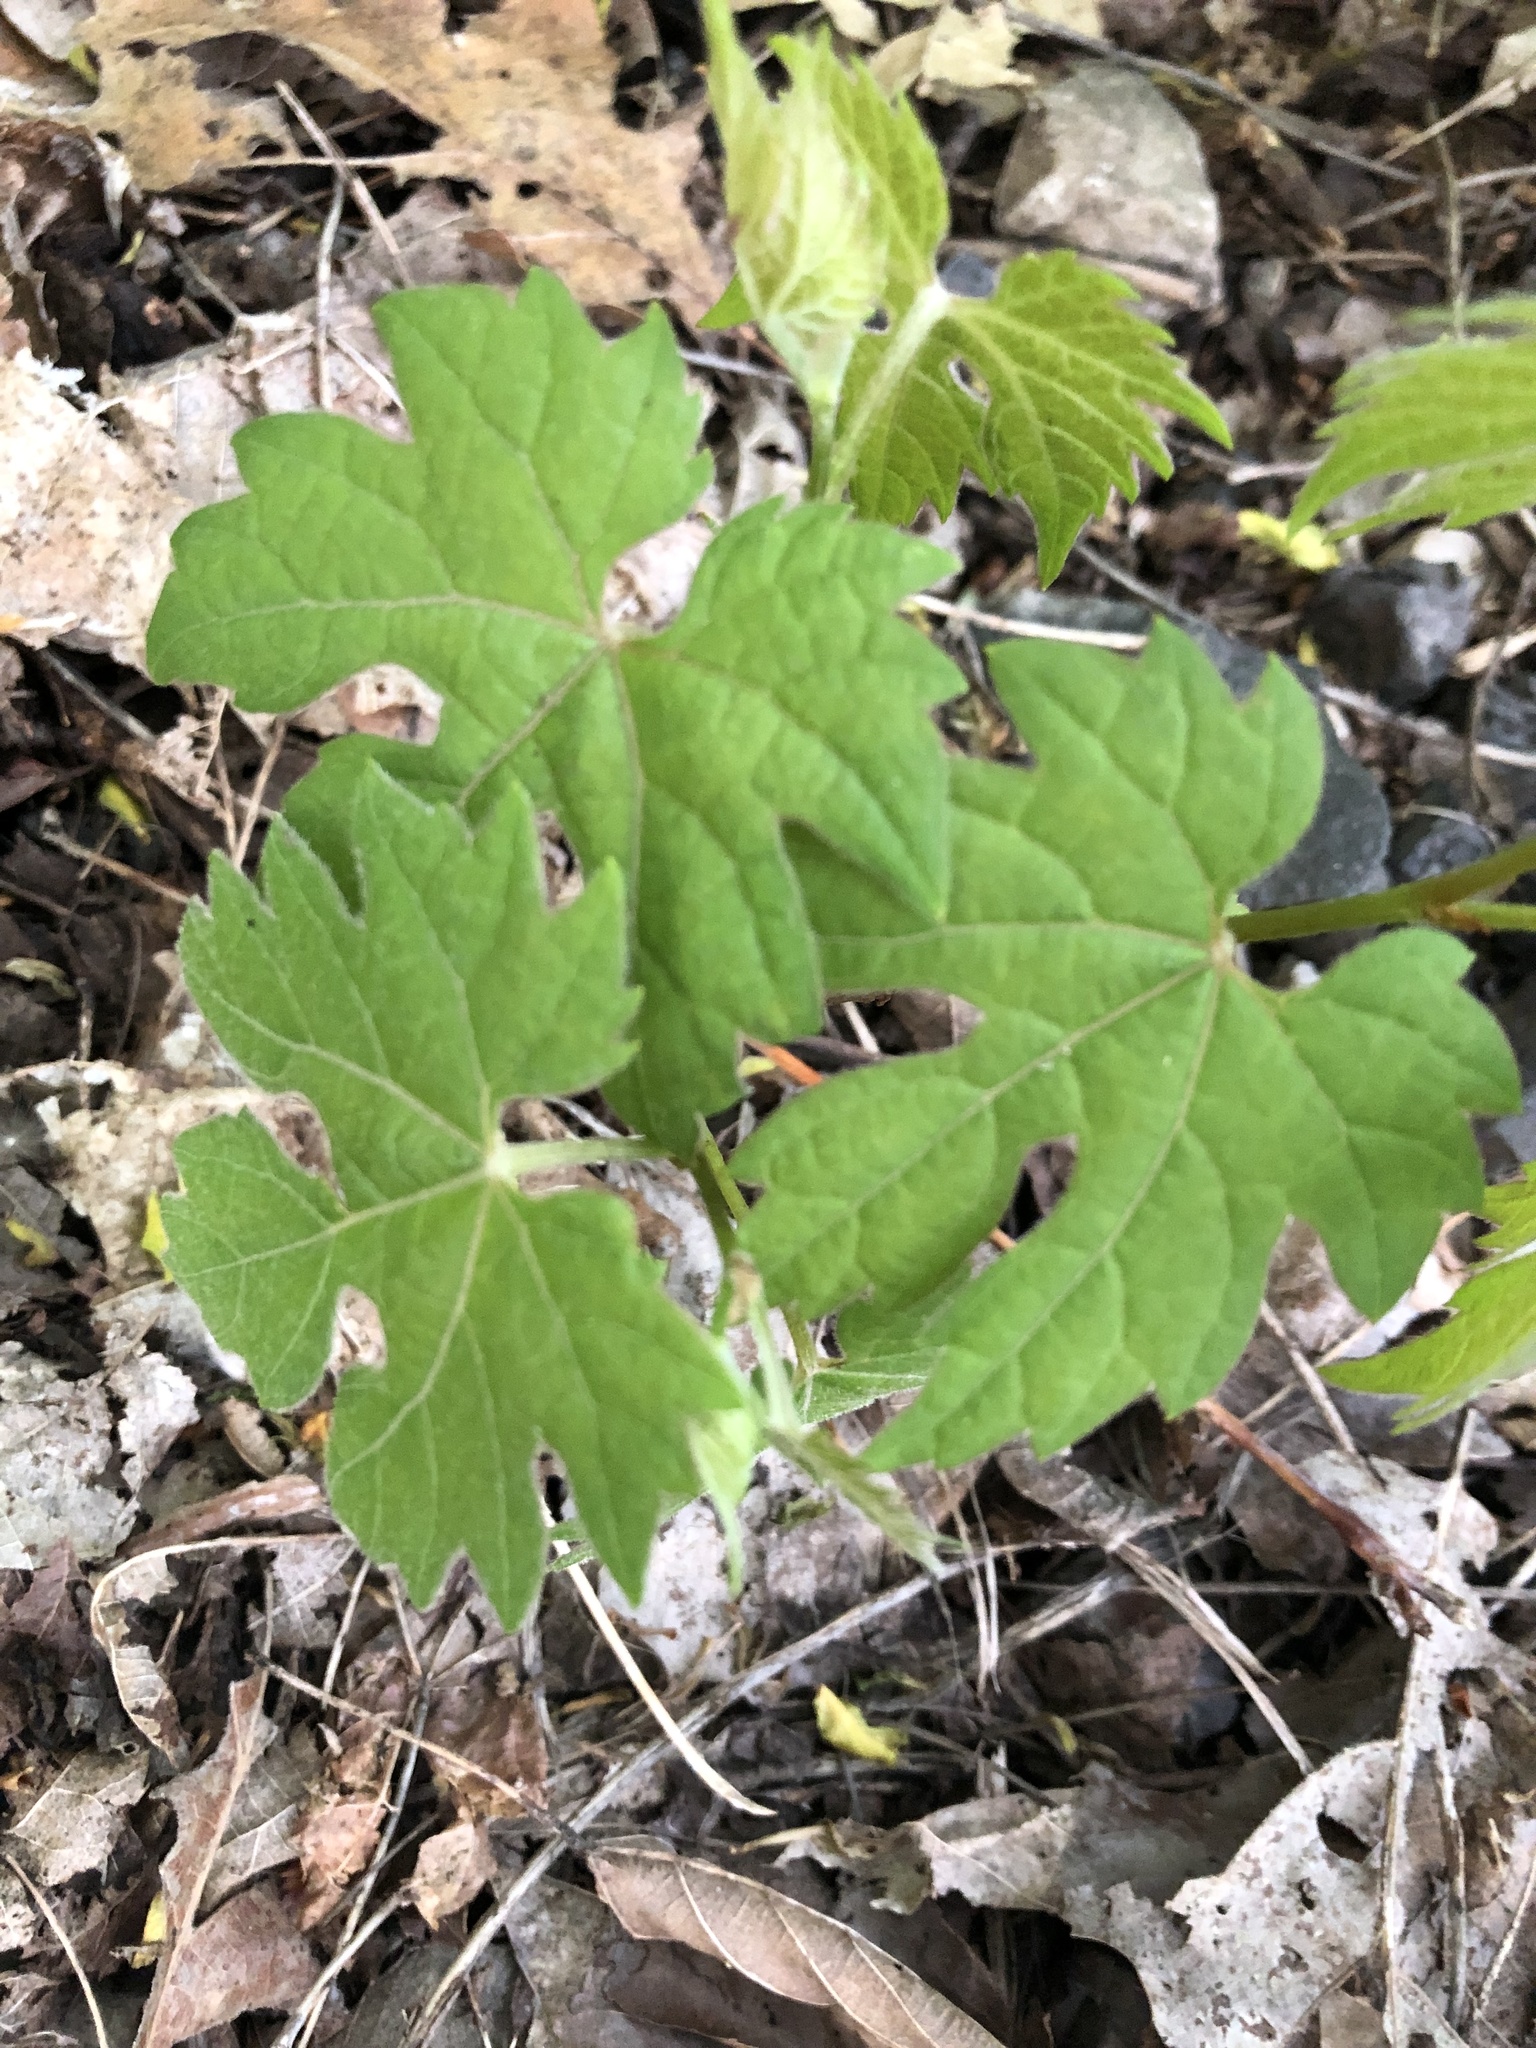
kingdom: Plantae
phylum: Tracheophyta
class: Magnoliopsida
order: Vitales
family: Vitaceae
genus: Vitis
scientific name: Vitis riparia
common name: Frost grape
